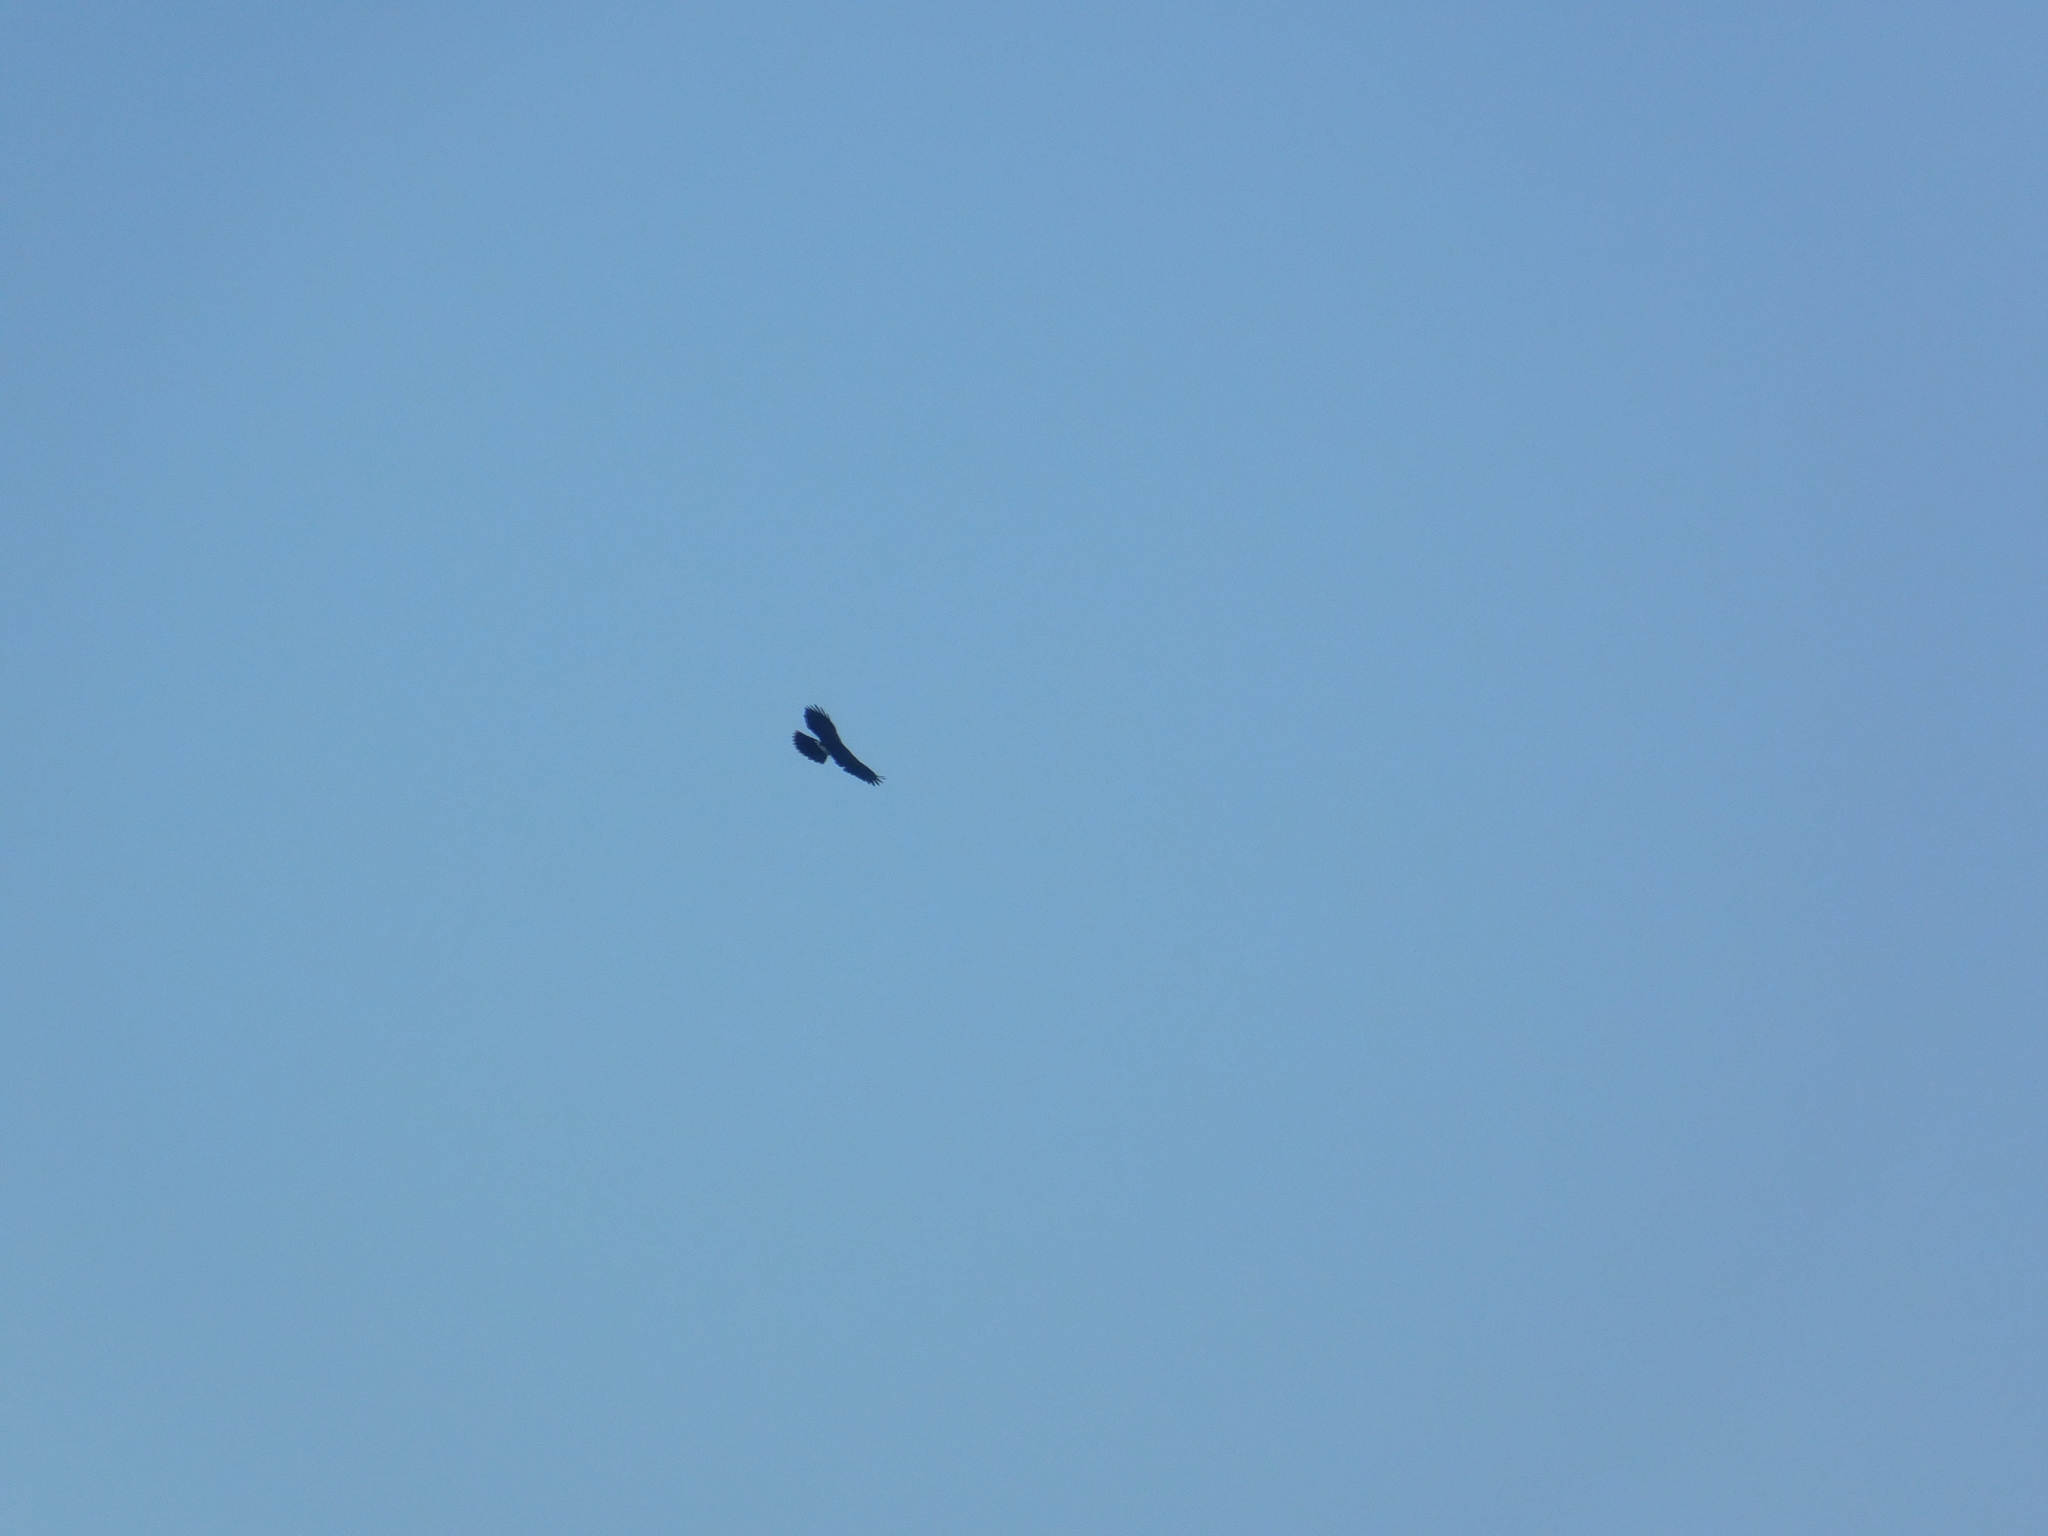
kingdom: Animalia
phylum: Chordata
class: Aves
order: Accipitriformes
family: Accipitridae
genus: Parabuteo
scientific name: Parabuteo unicinctus
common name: Harris's hawk
